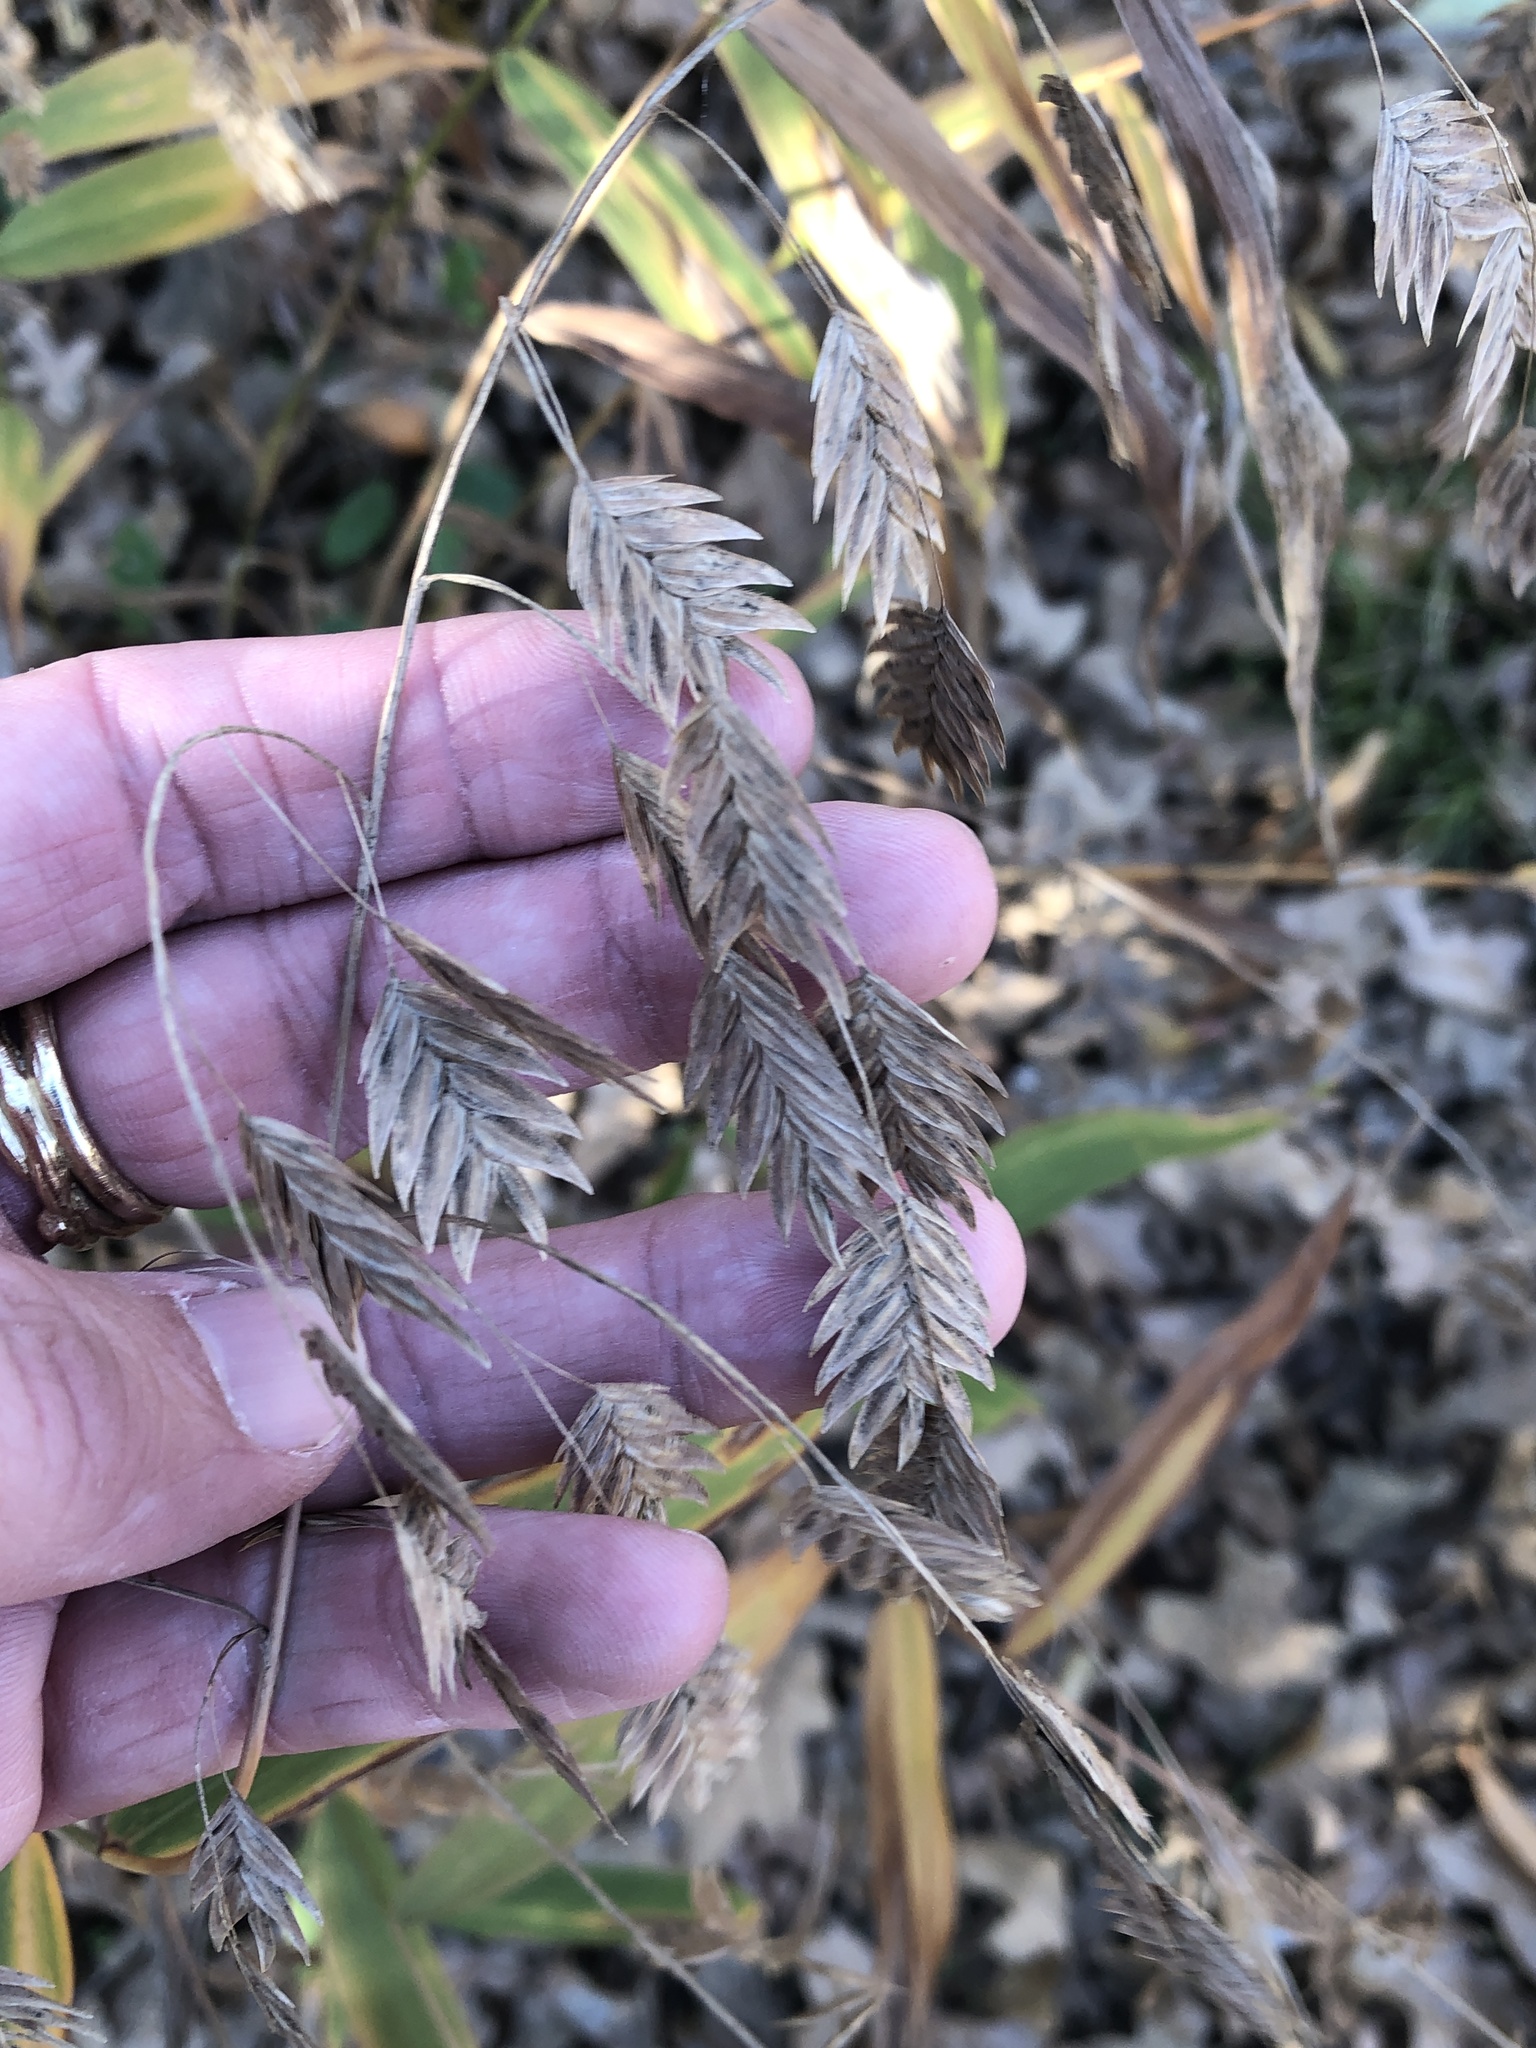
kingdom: Plantae
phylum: Tracheophyta
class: Liliopsida
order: Poales
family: Poaceae
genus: Chasmanthium
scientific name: Chasmanthium latifolium
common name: Broad-leaved chasmanthium
